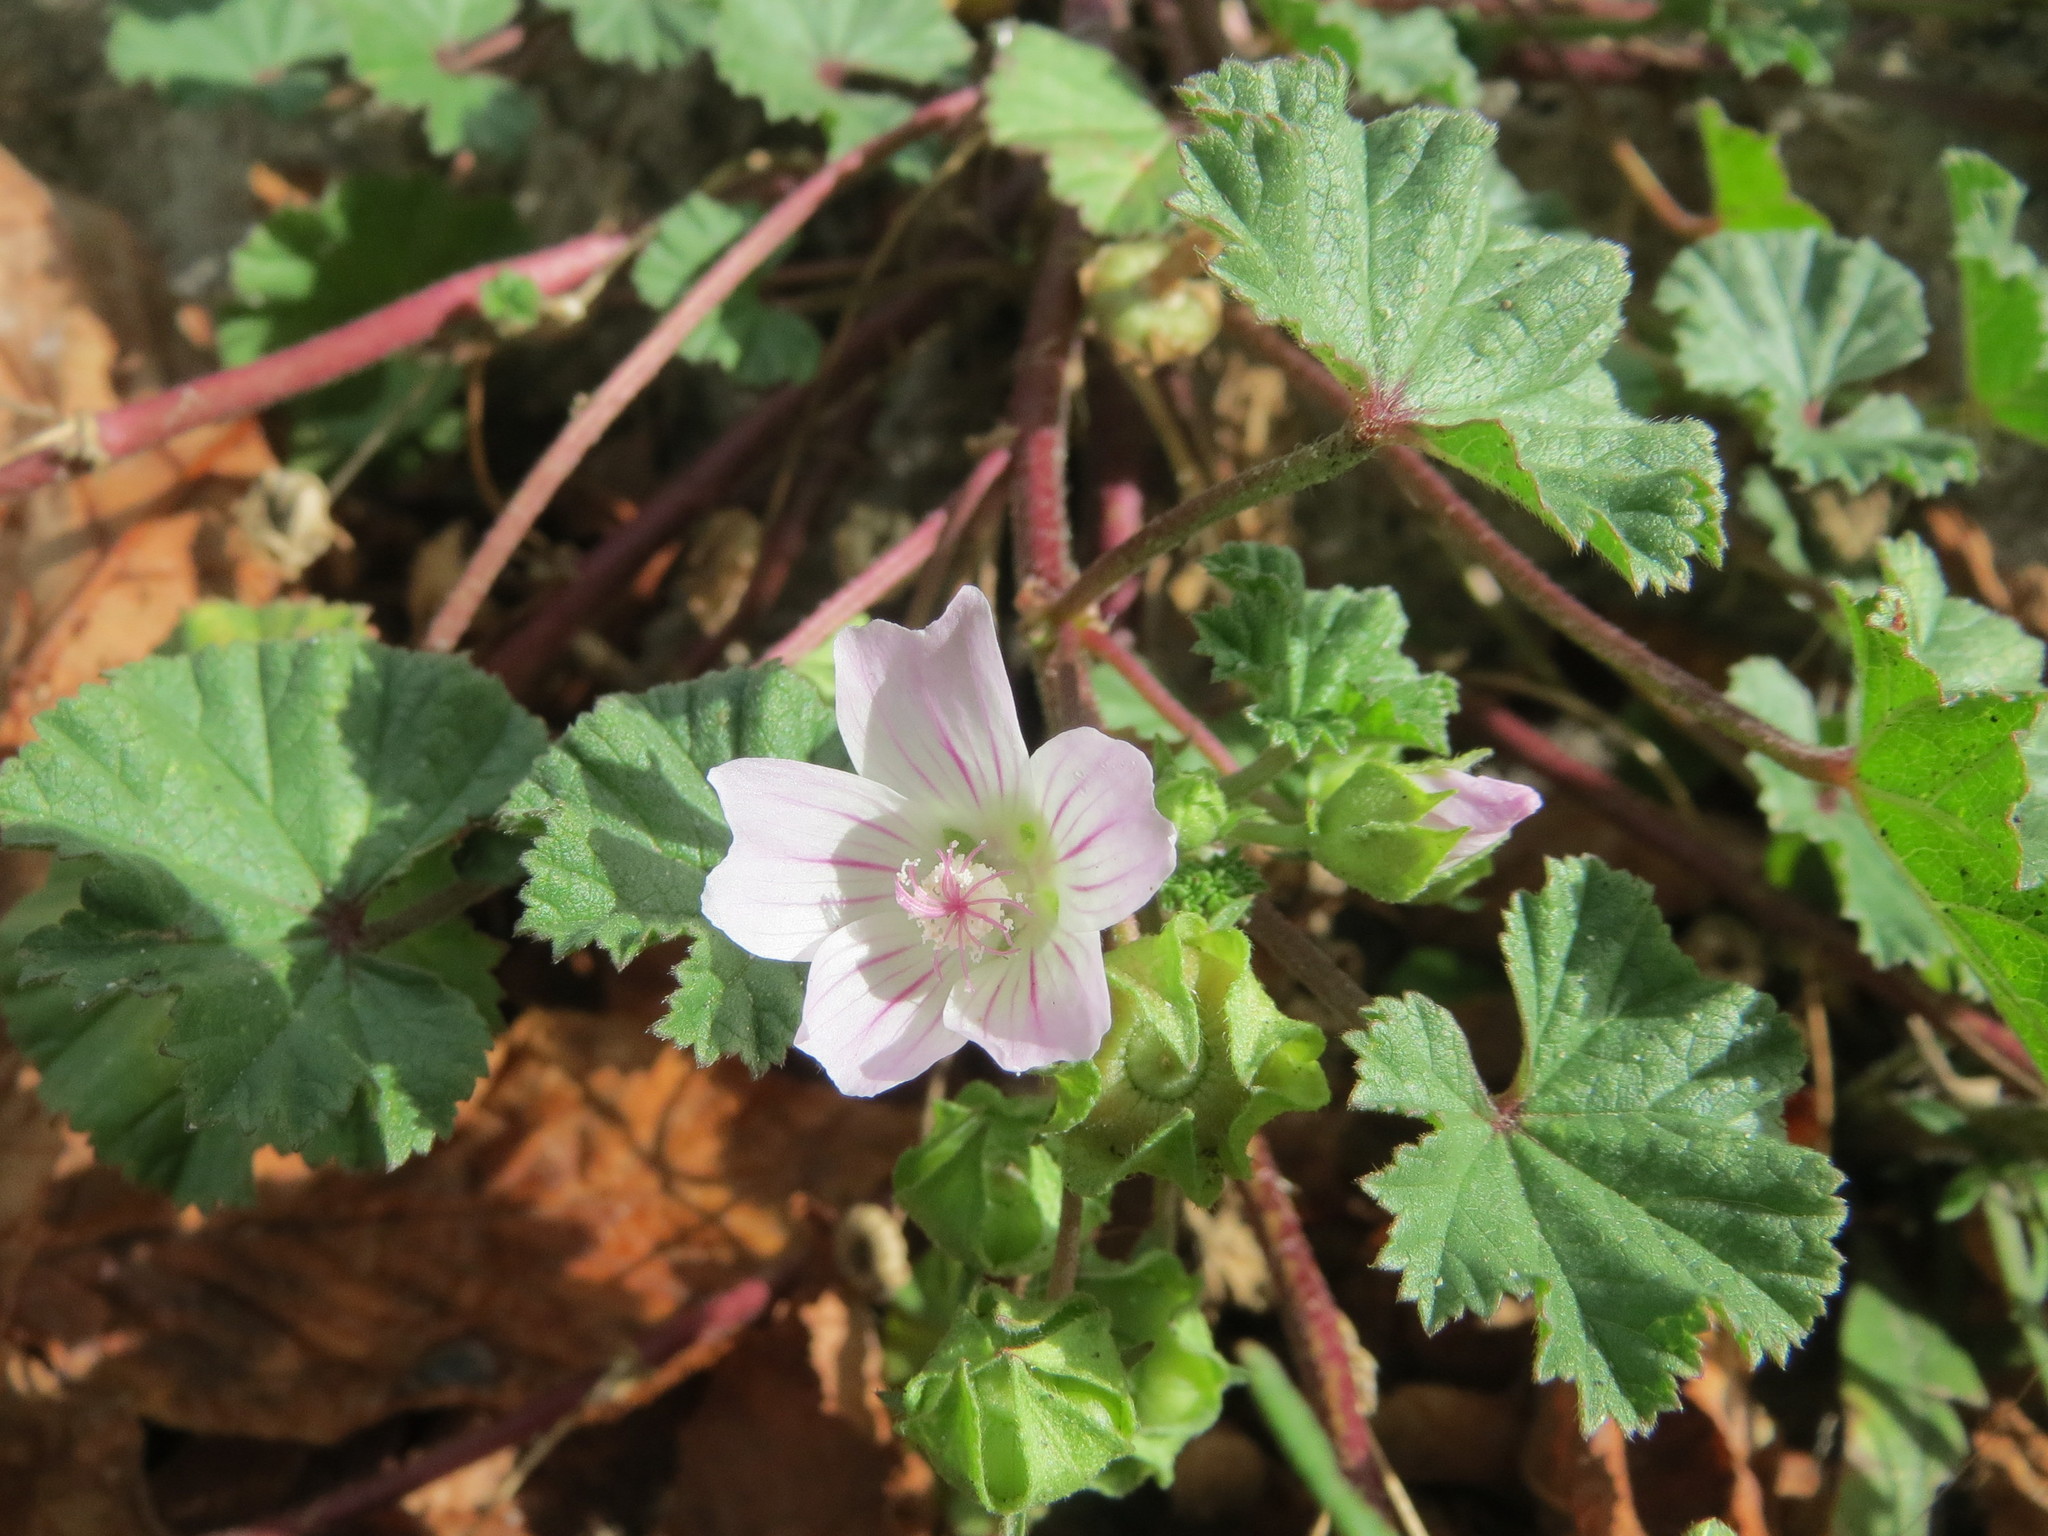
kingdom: Plantae
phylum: Tracheophyta
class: Magnoliopsida
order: Malvales
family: Malvaceae
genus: Malva
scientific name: Malva neglecta
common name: Common mallow
